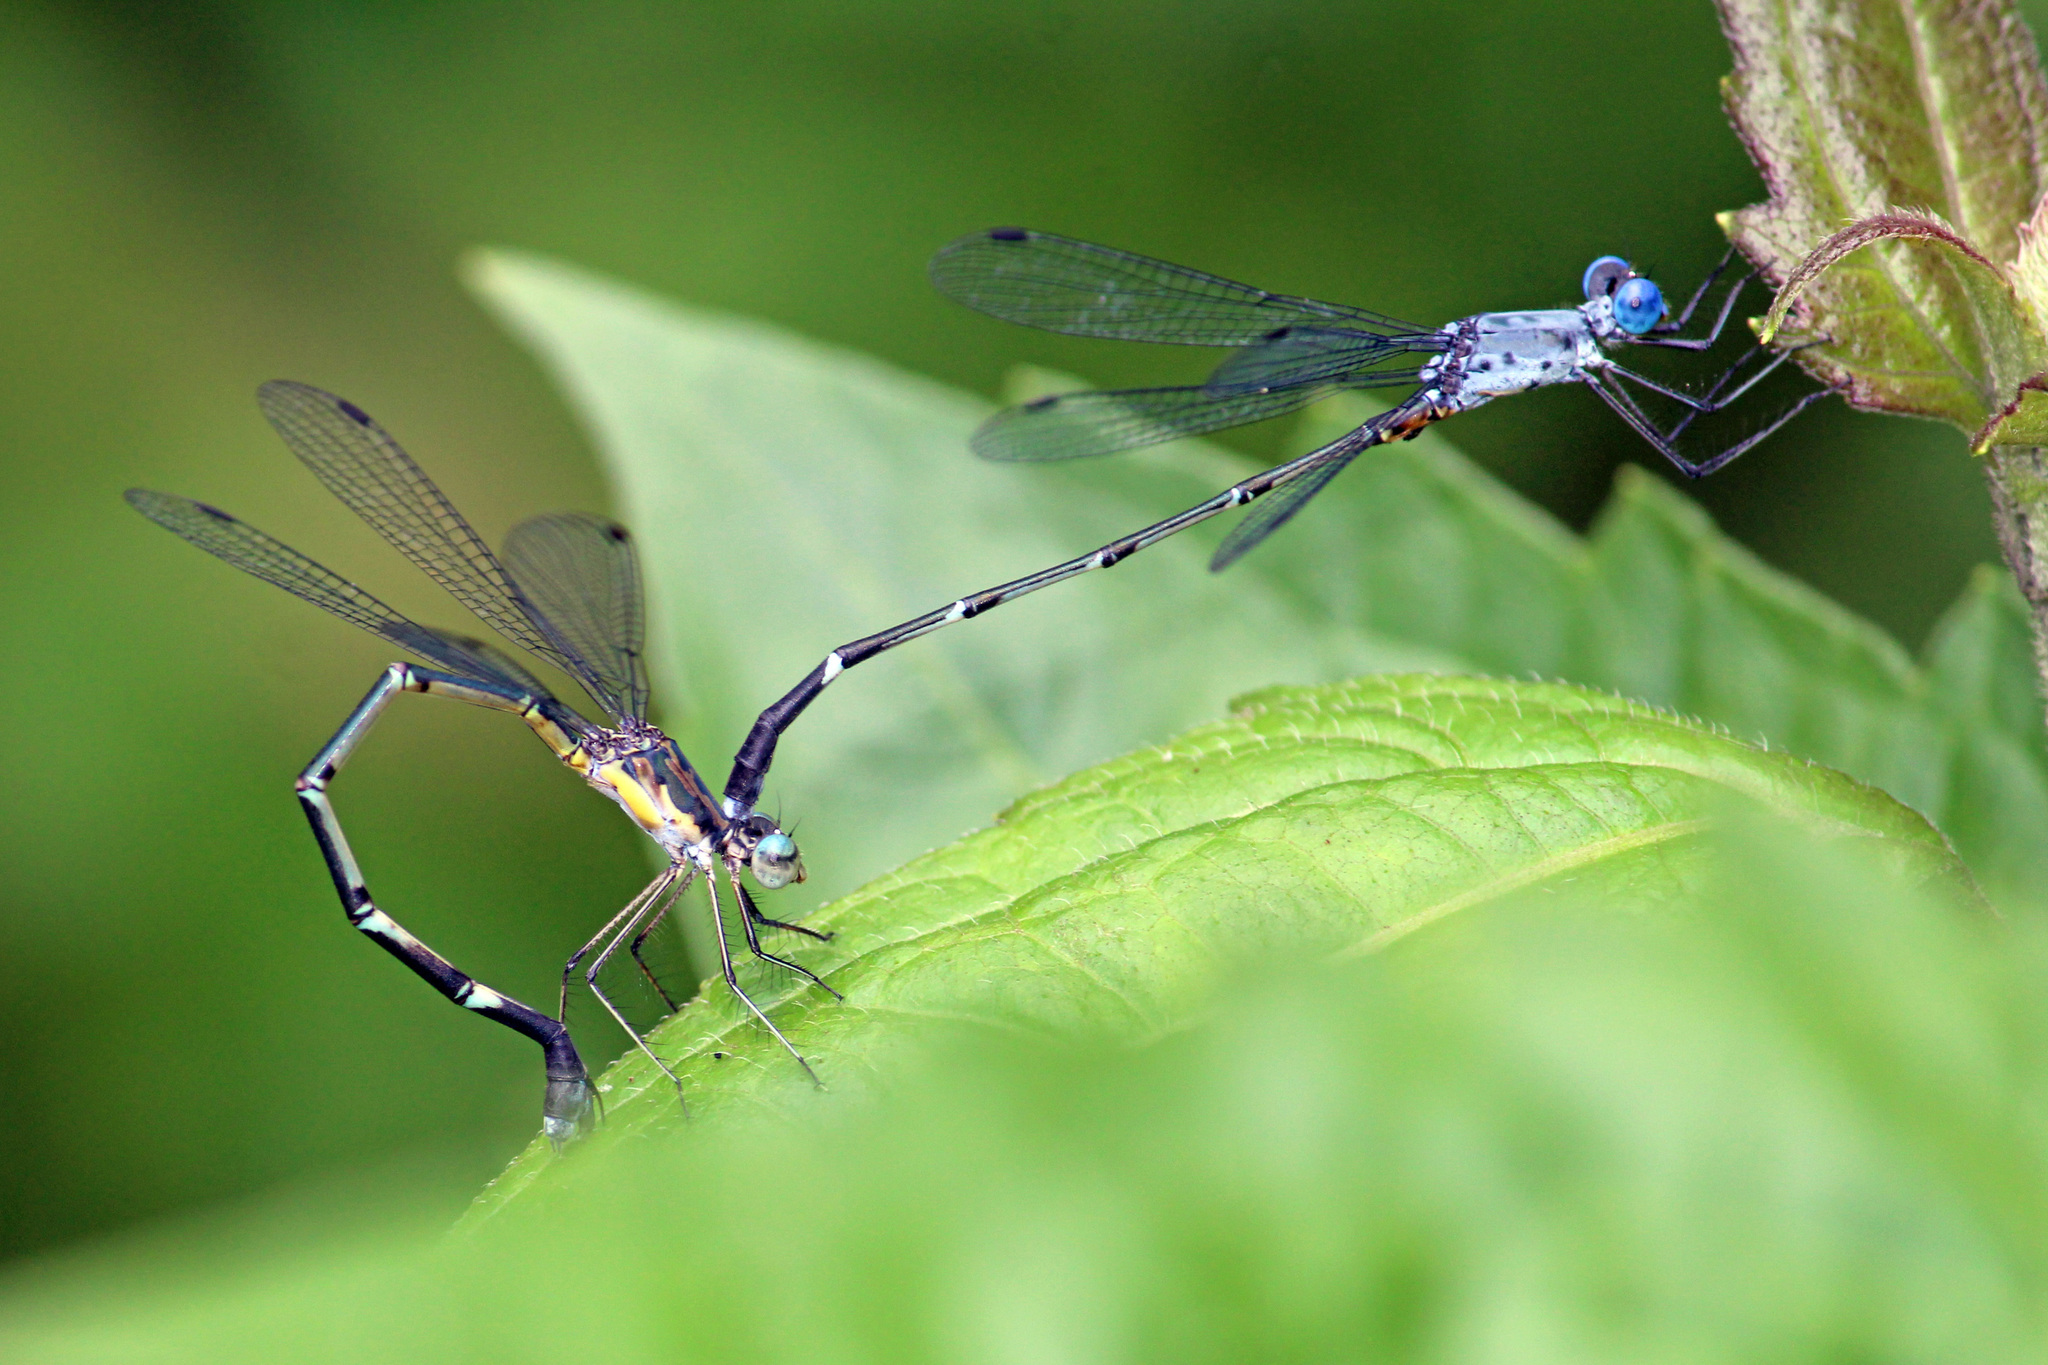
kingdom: Animalia
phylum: Arthropoda
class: Insecta
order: Odonata
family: Lestidae
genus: Lestes
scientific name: Lestes dorothea
